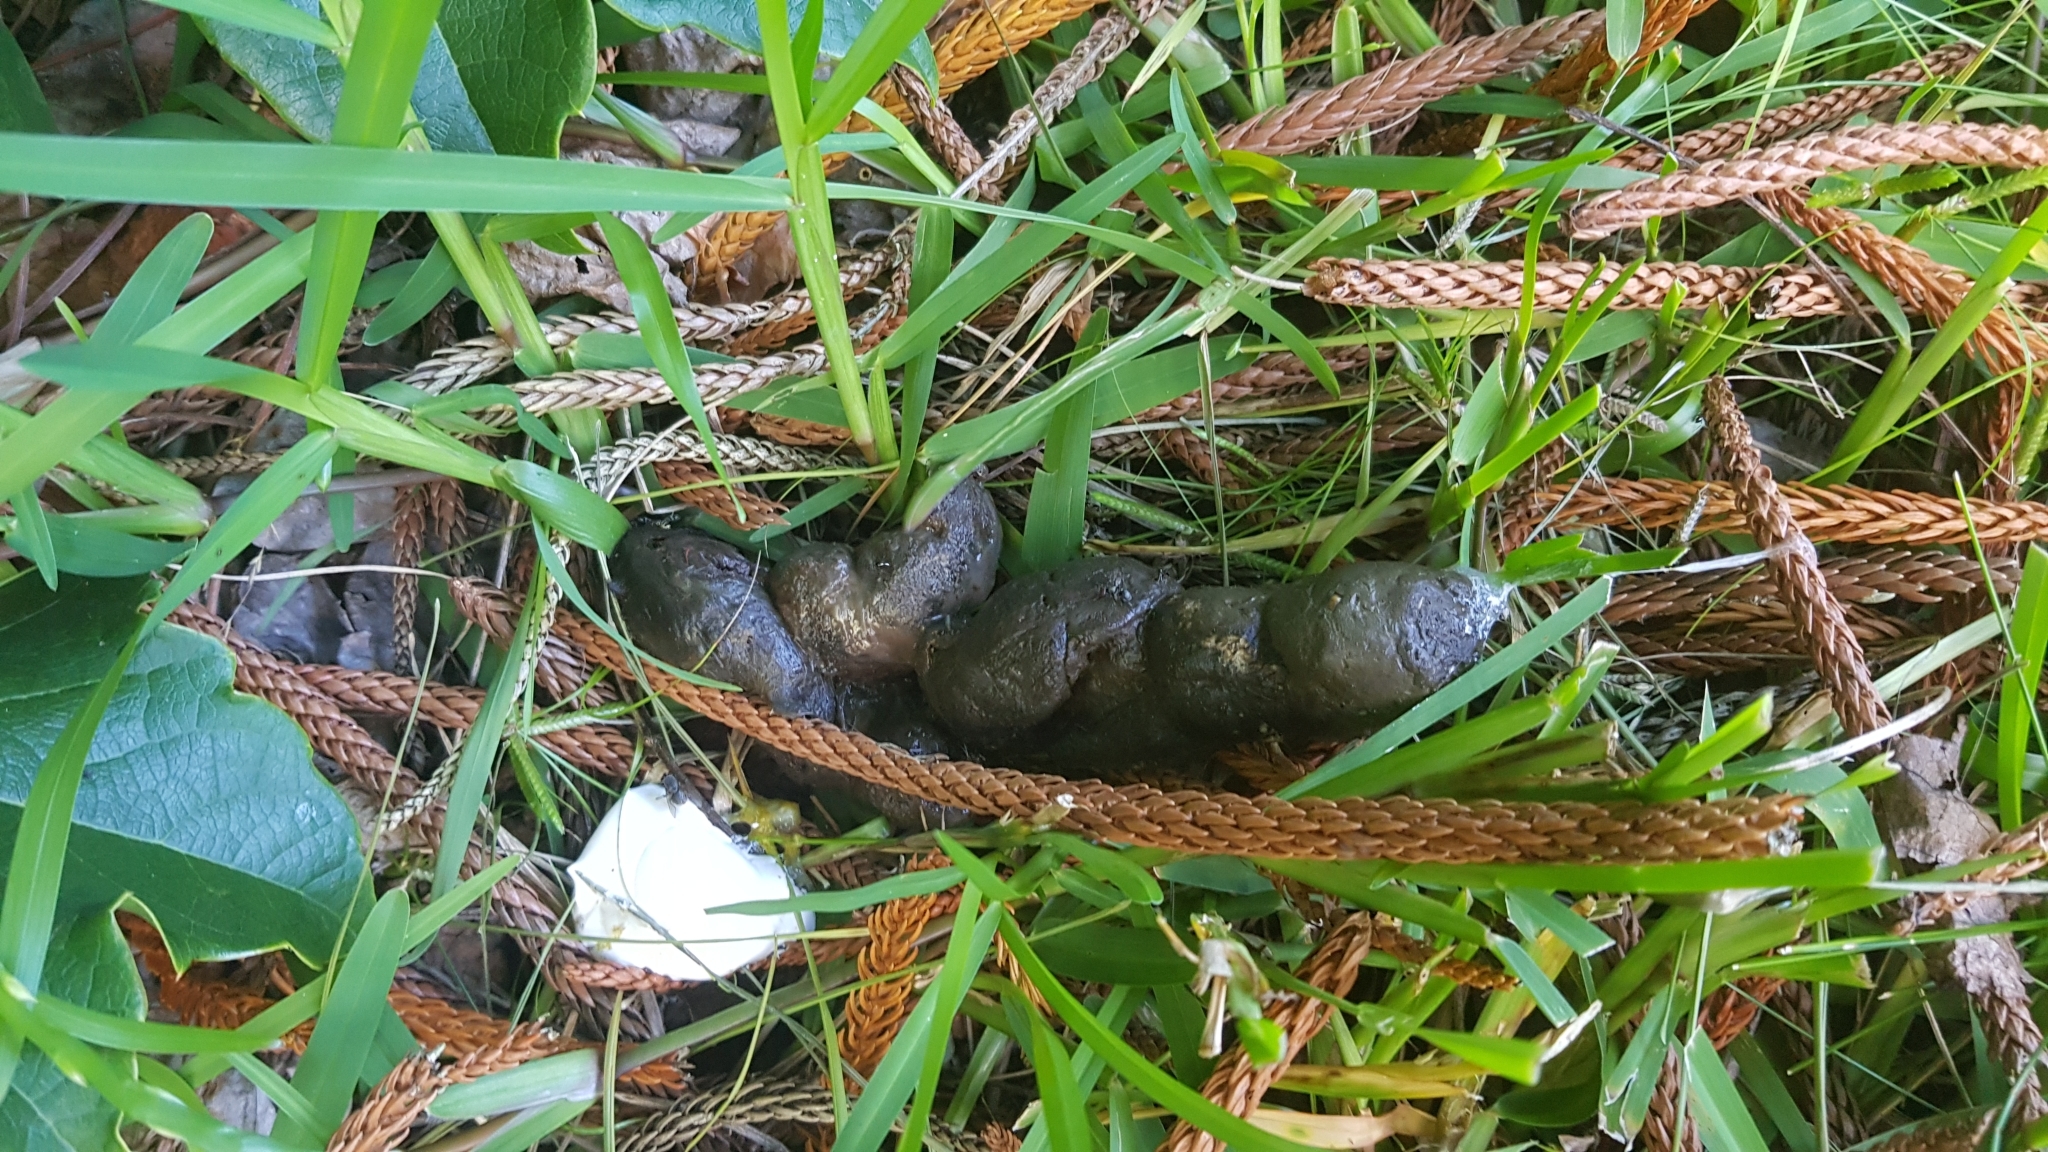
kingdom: Animalia
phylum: Chordata
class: Squamata
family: Pythonidae
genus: Morelia
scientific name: Morelia spilota
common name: Carpet python
